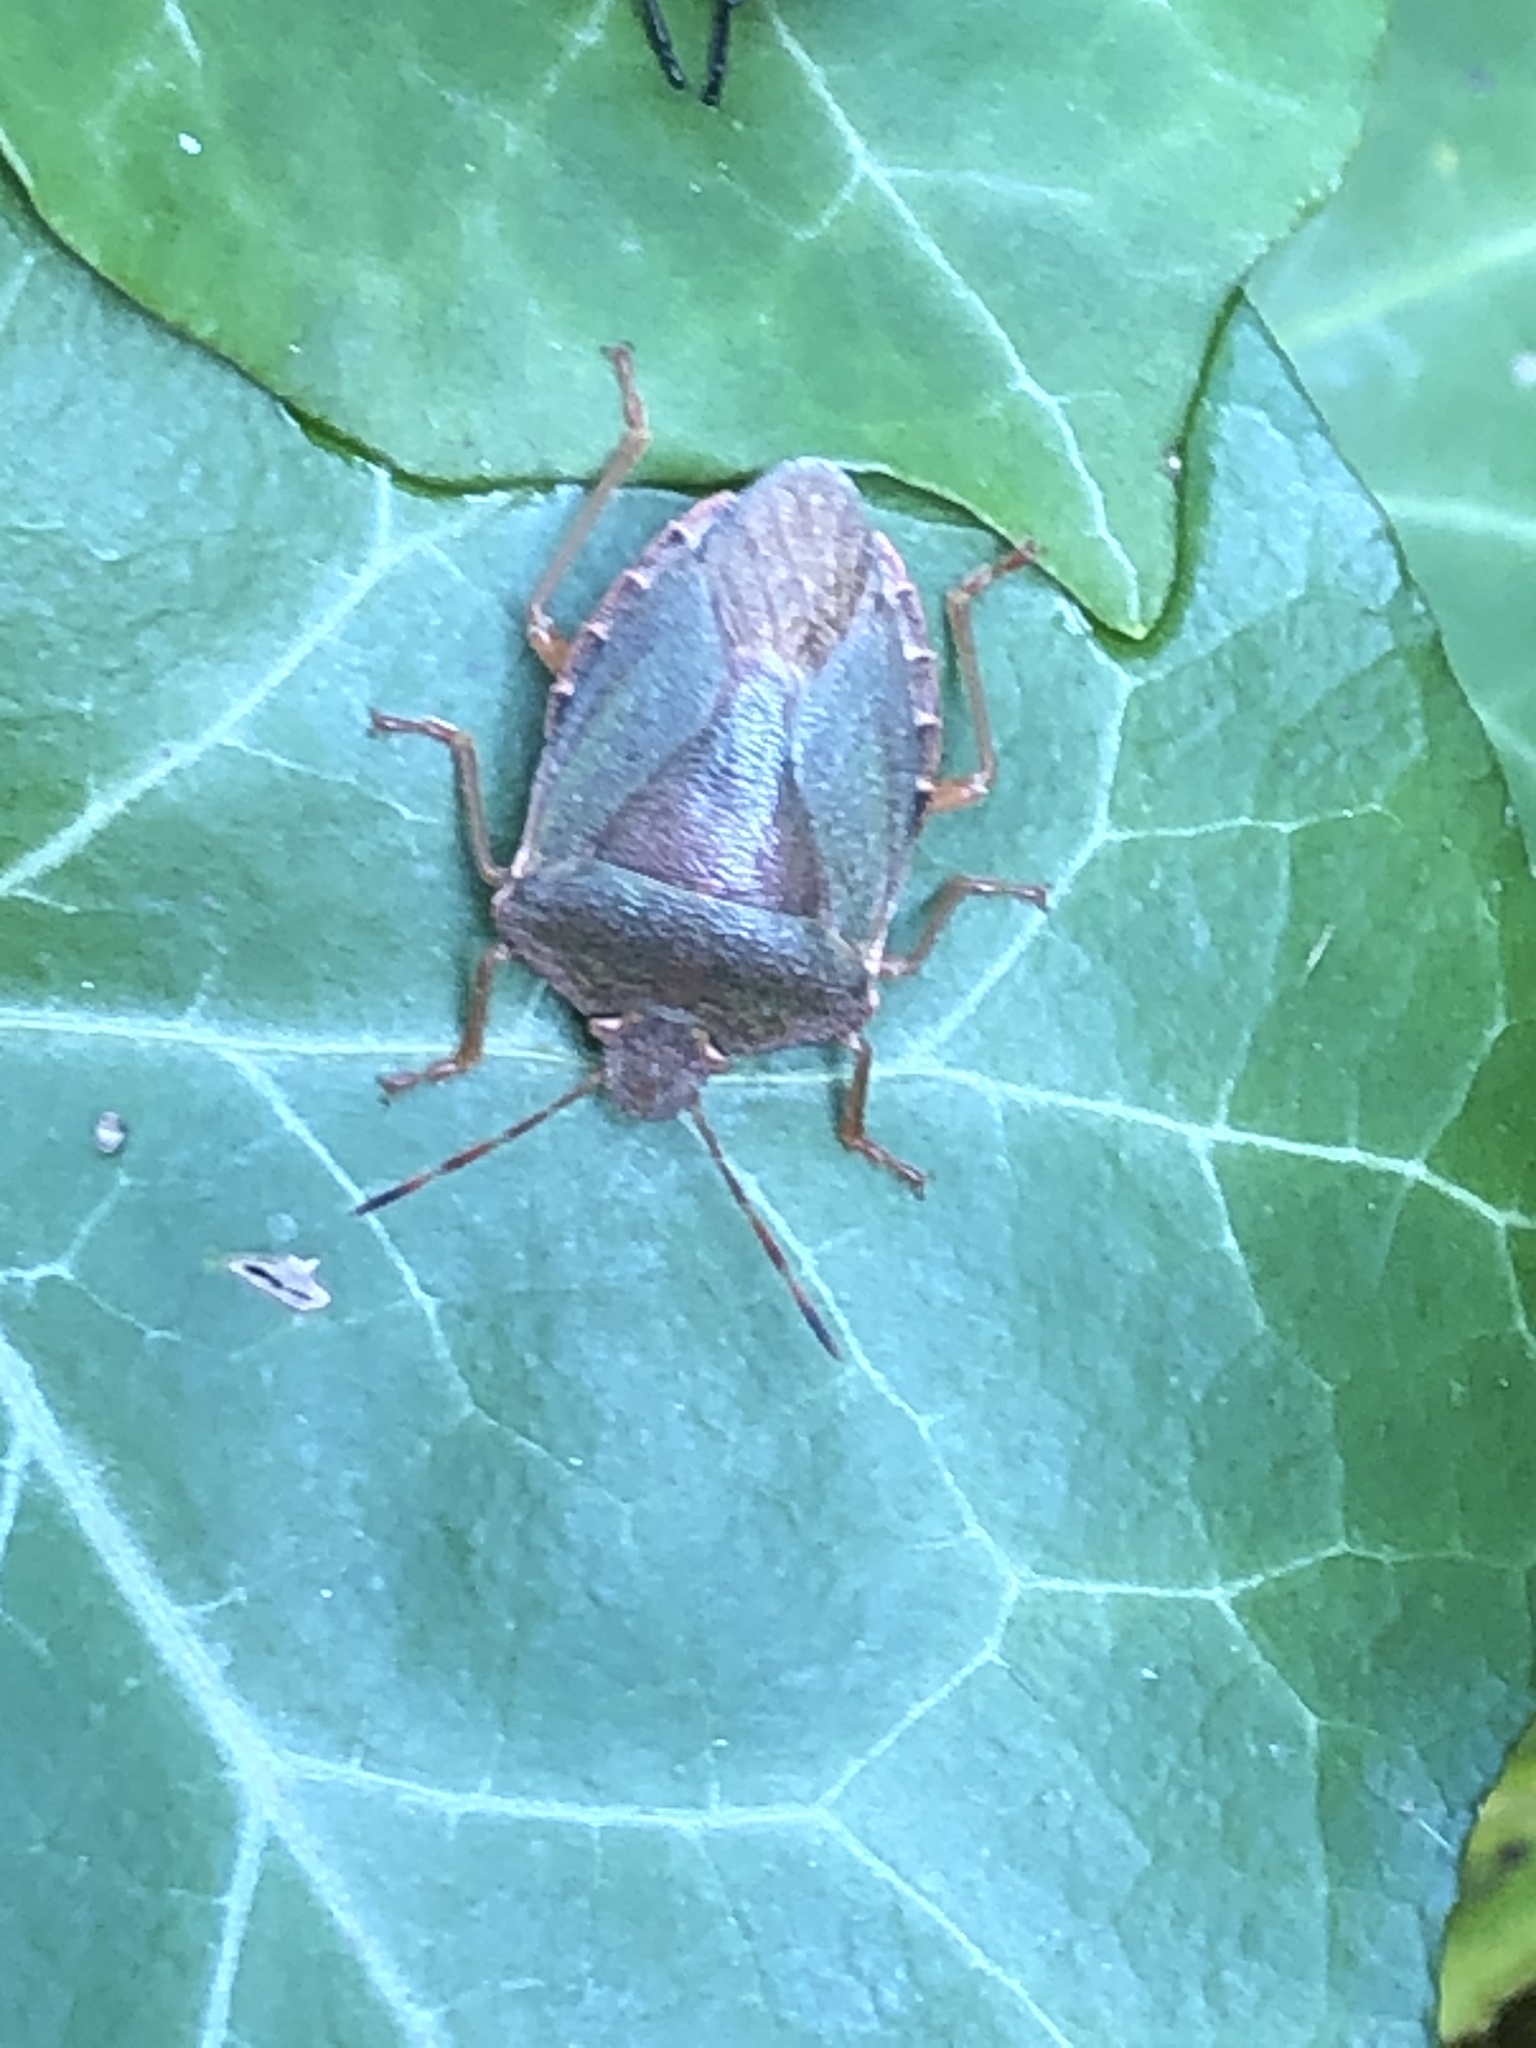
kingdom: Animalia
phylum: Arthropoda
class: Insecta
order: Hemiptera
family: Pentatomidae
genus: Palomena
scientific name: Palomena prasina
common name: Green shieldbug
